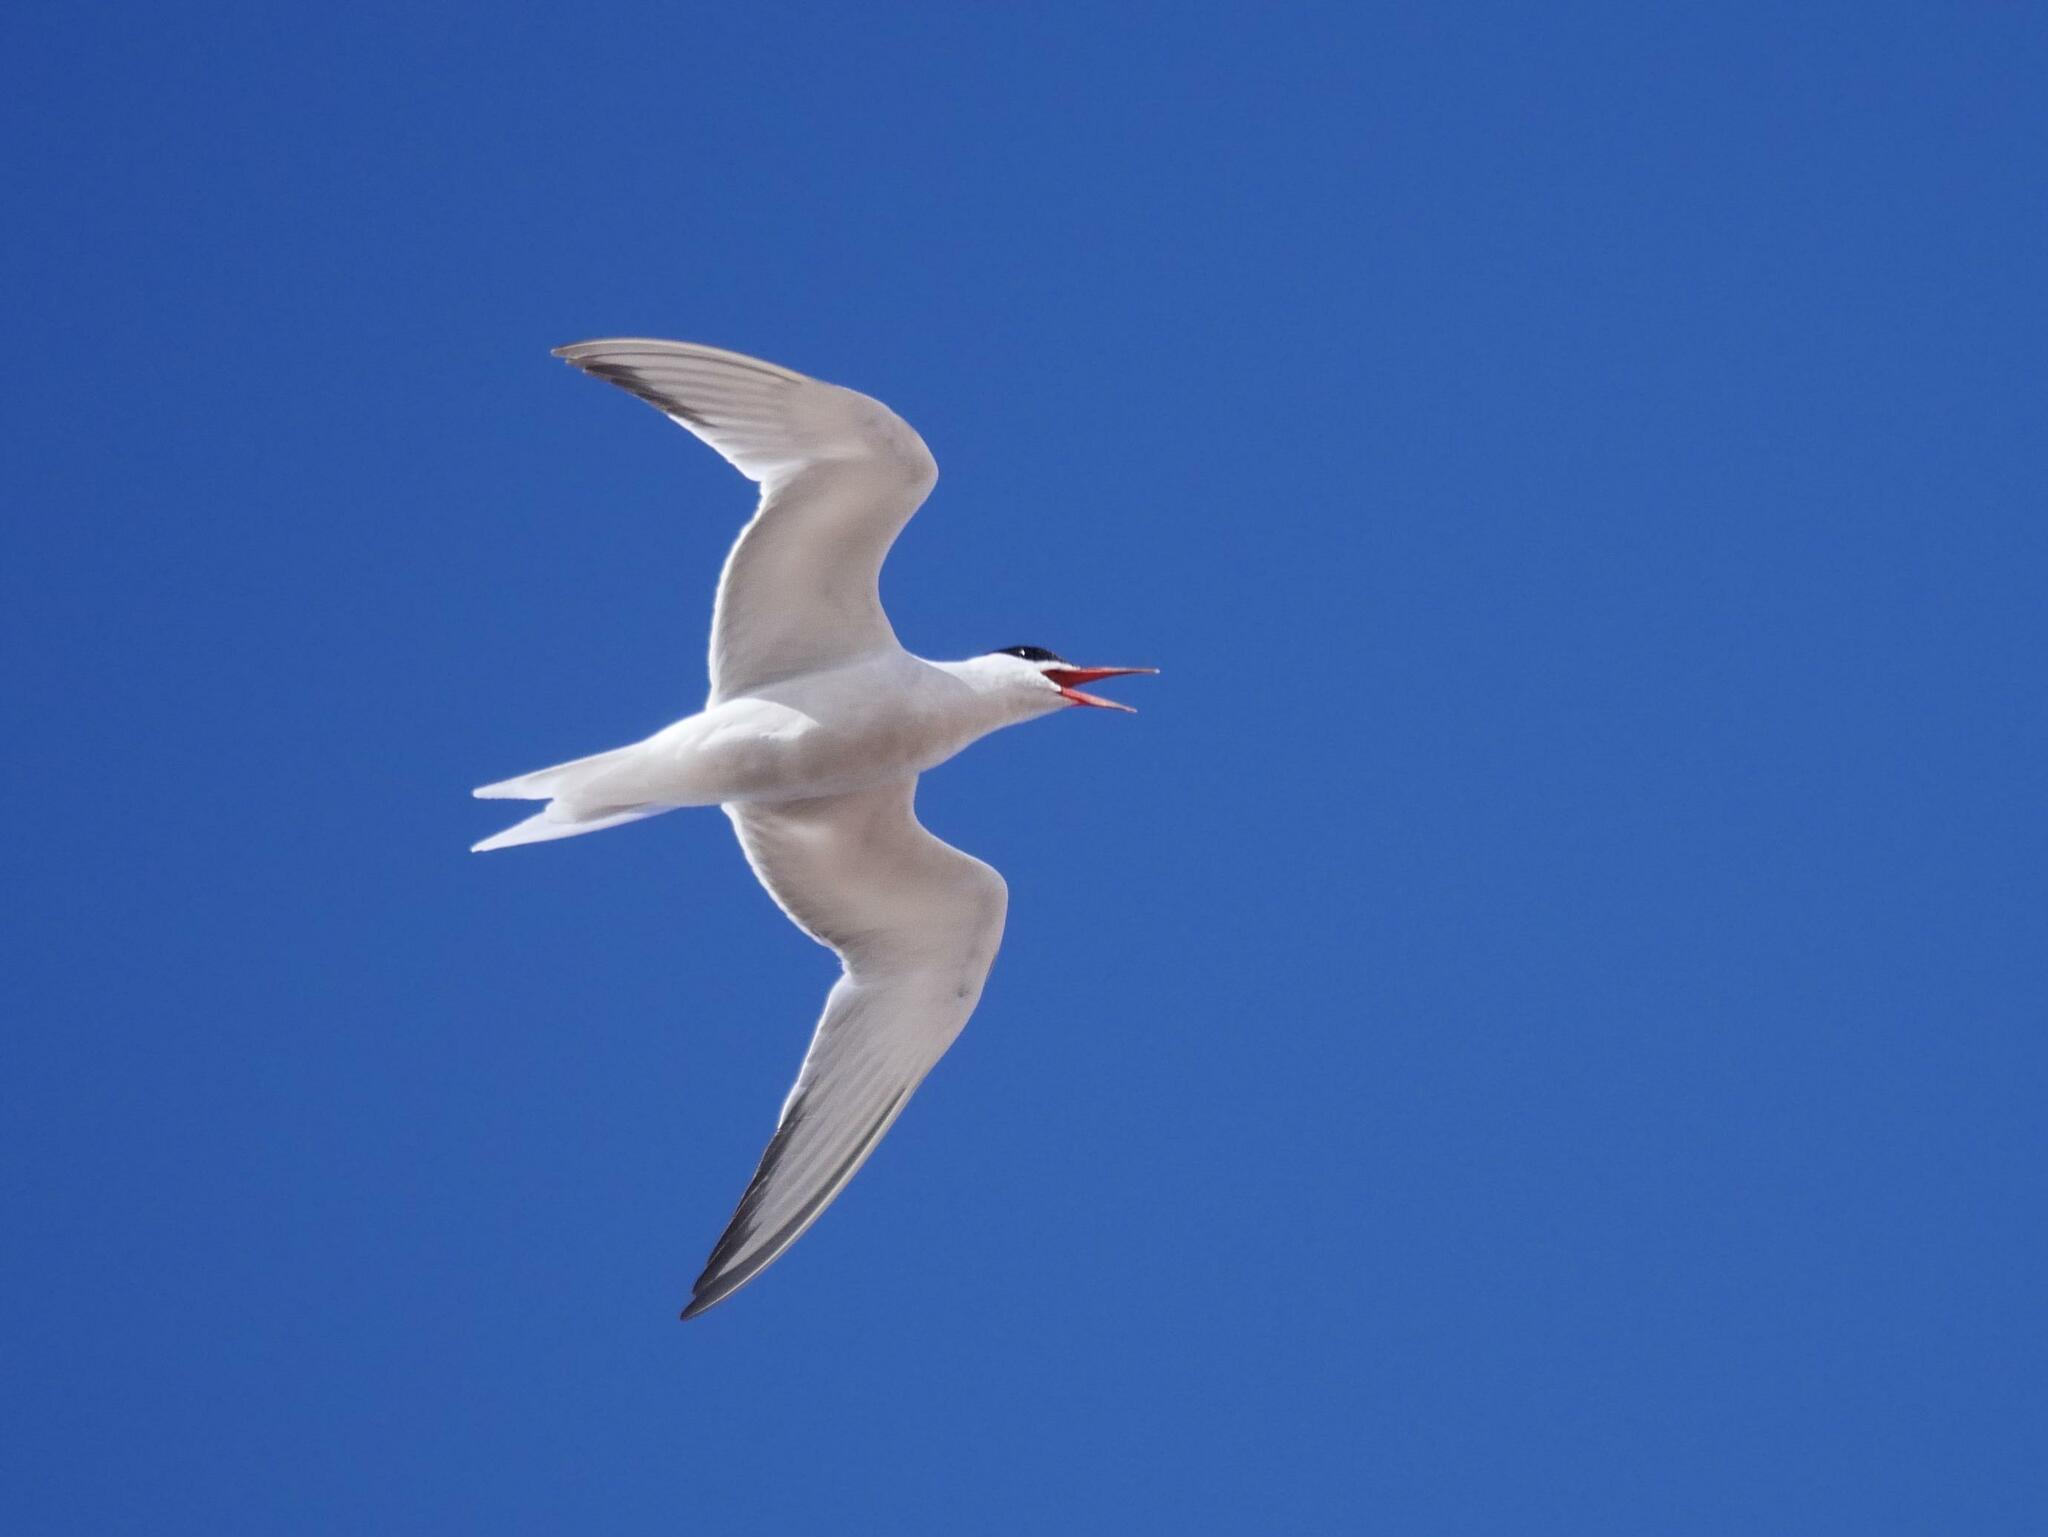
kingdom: Animalia
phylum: Chordata
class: Aves
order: Charadriiformes
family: Laridae
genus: Sterna
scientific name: Sterna hirundo
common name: Common tern
